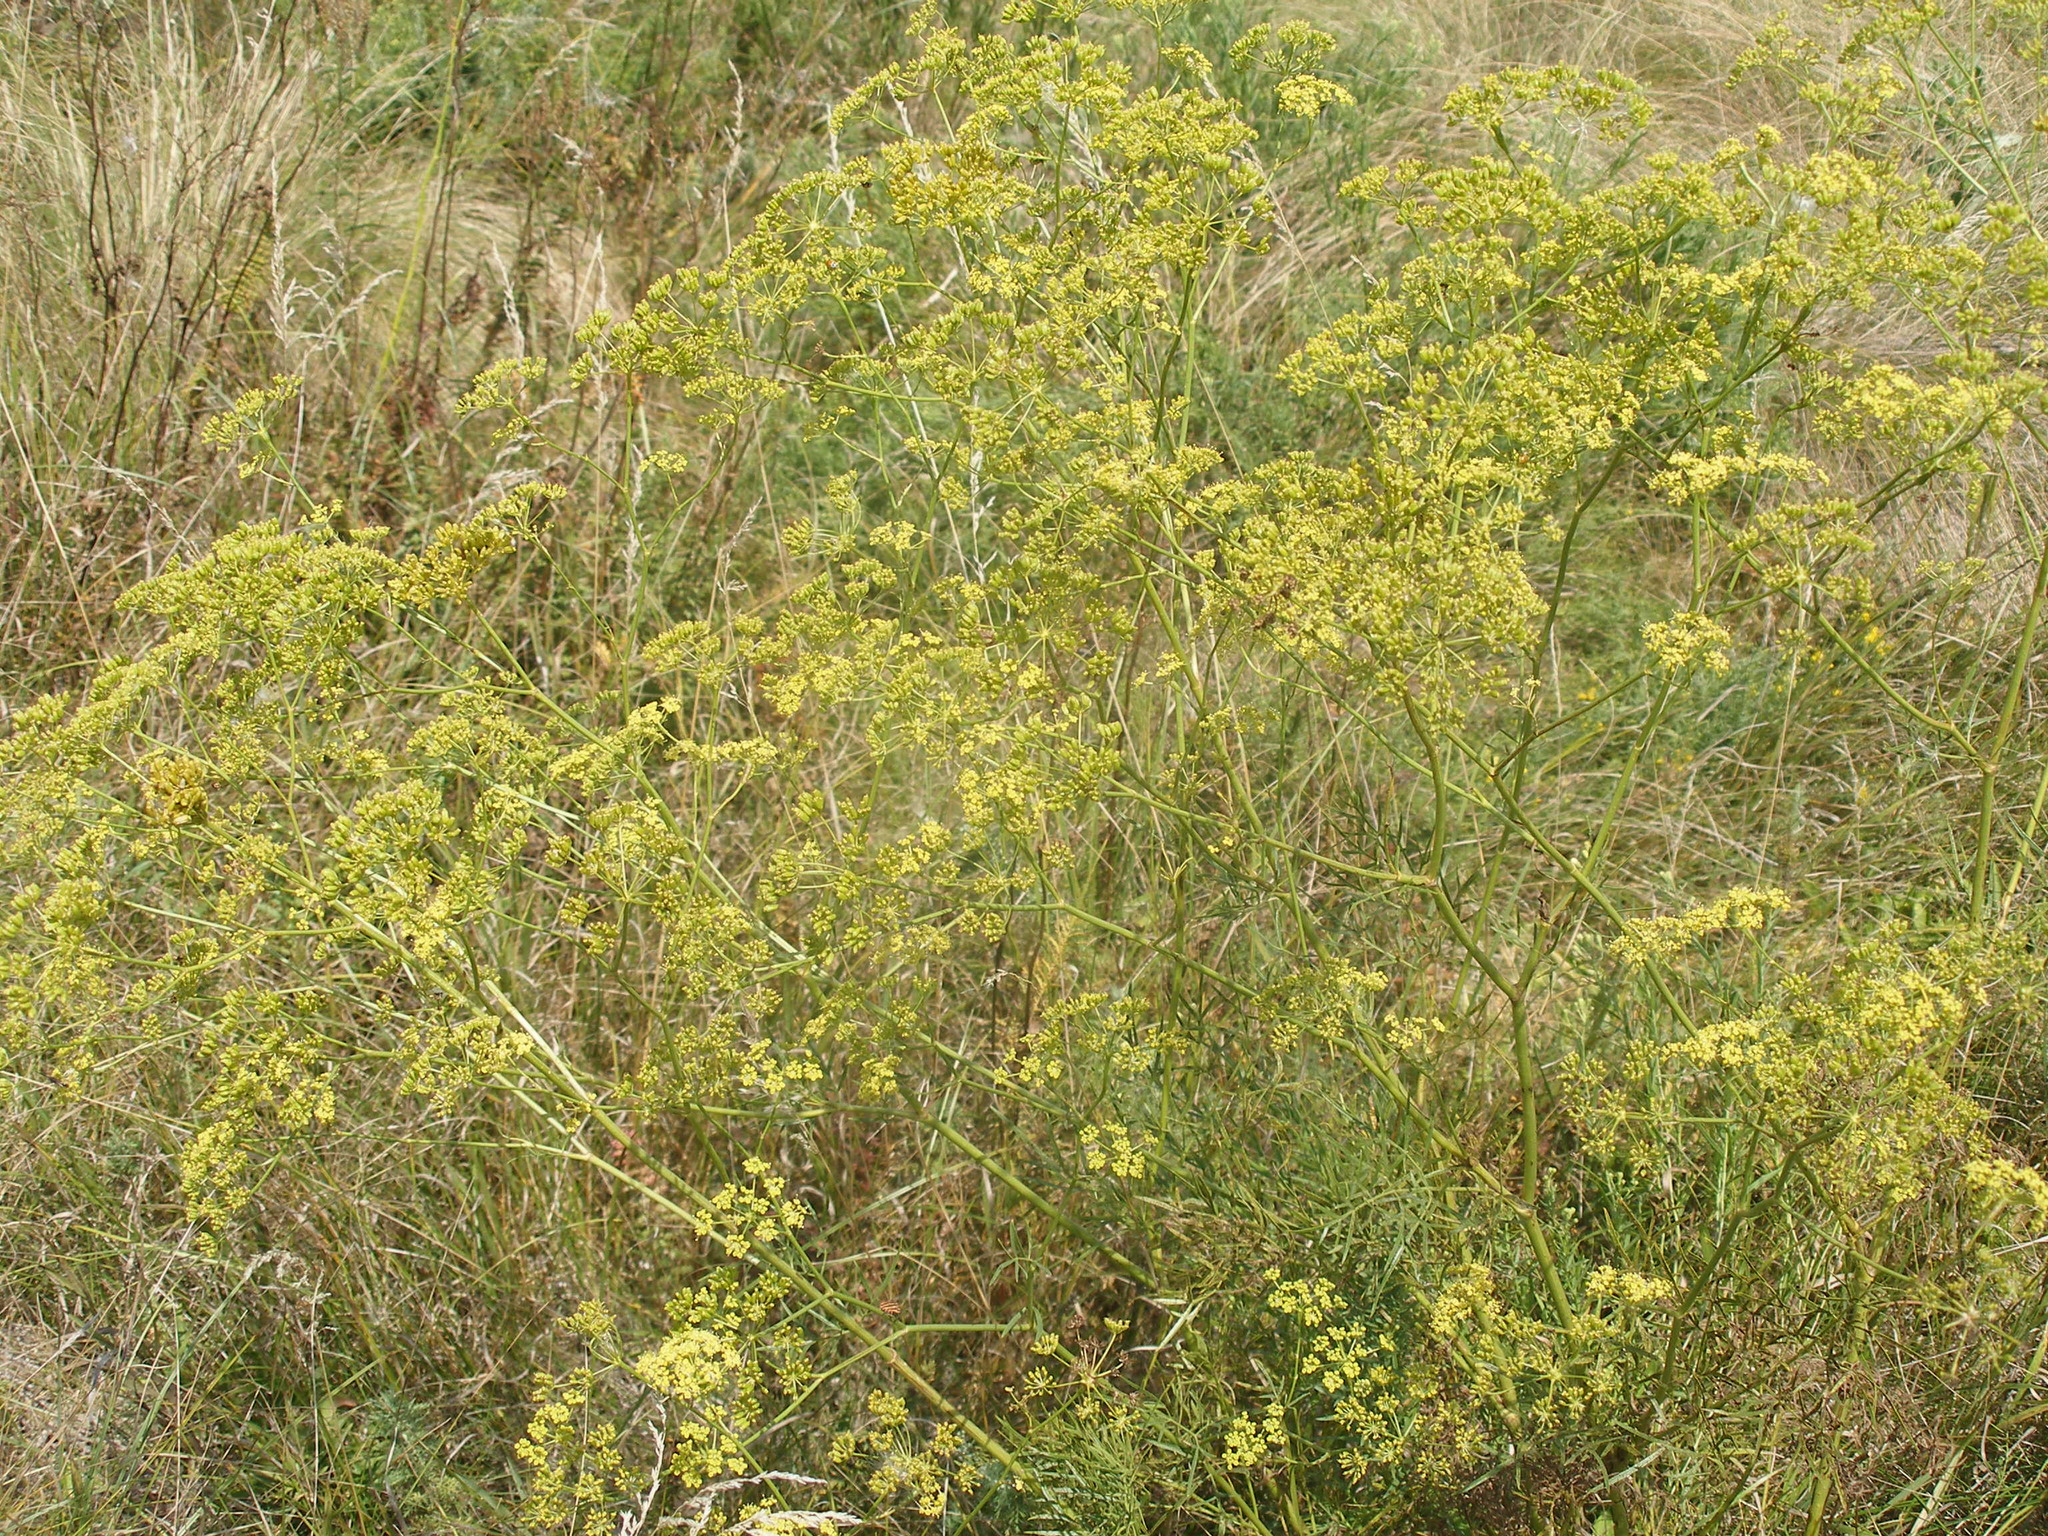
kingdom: Plantae
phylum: Tracheophyta
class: Magnoliopsida
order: Apiales
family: Apiaceae
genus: Silaum
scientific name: Silaum silaus
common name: Pepper-saxifrage
